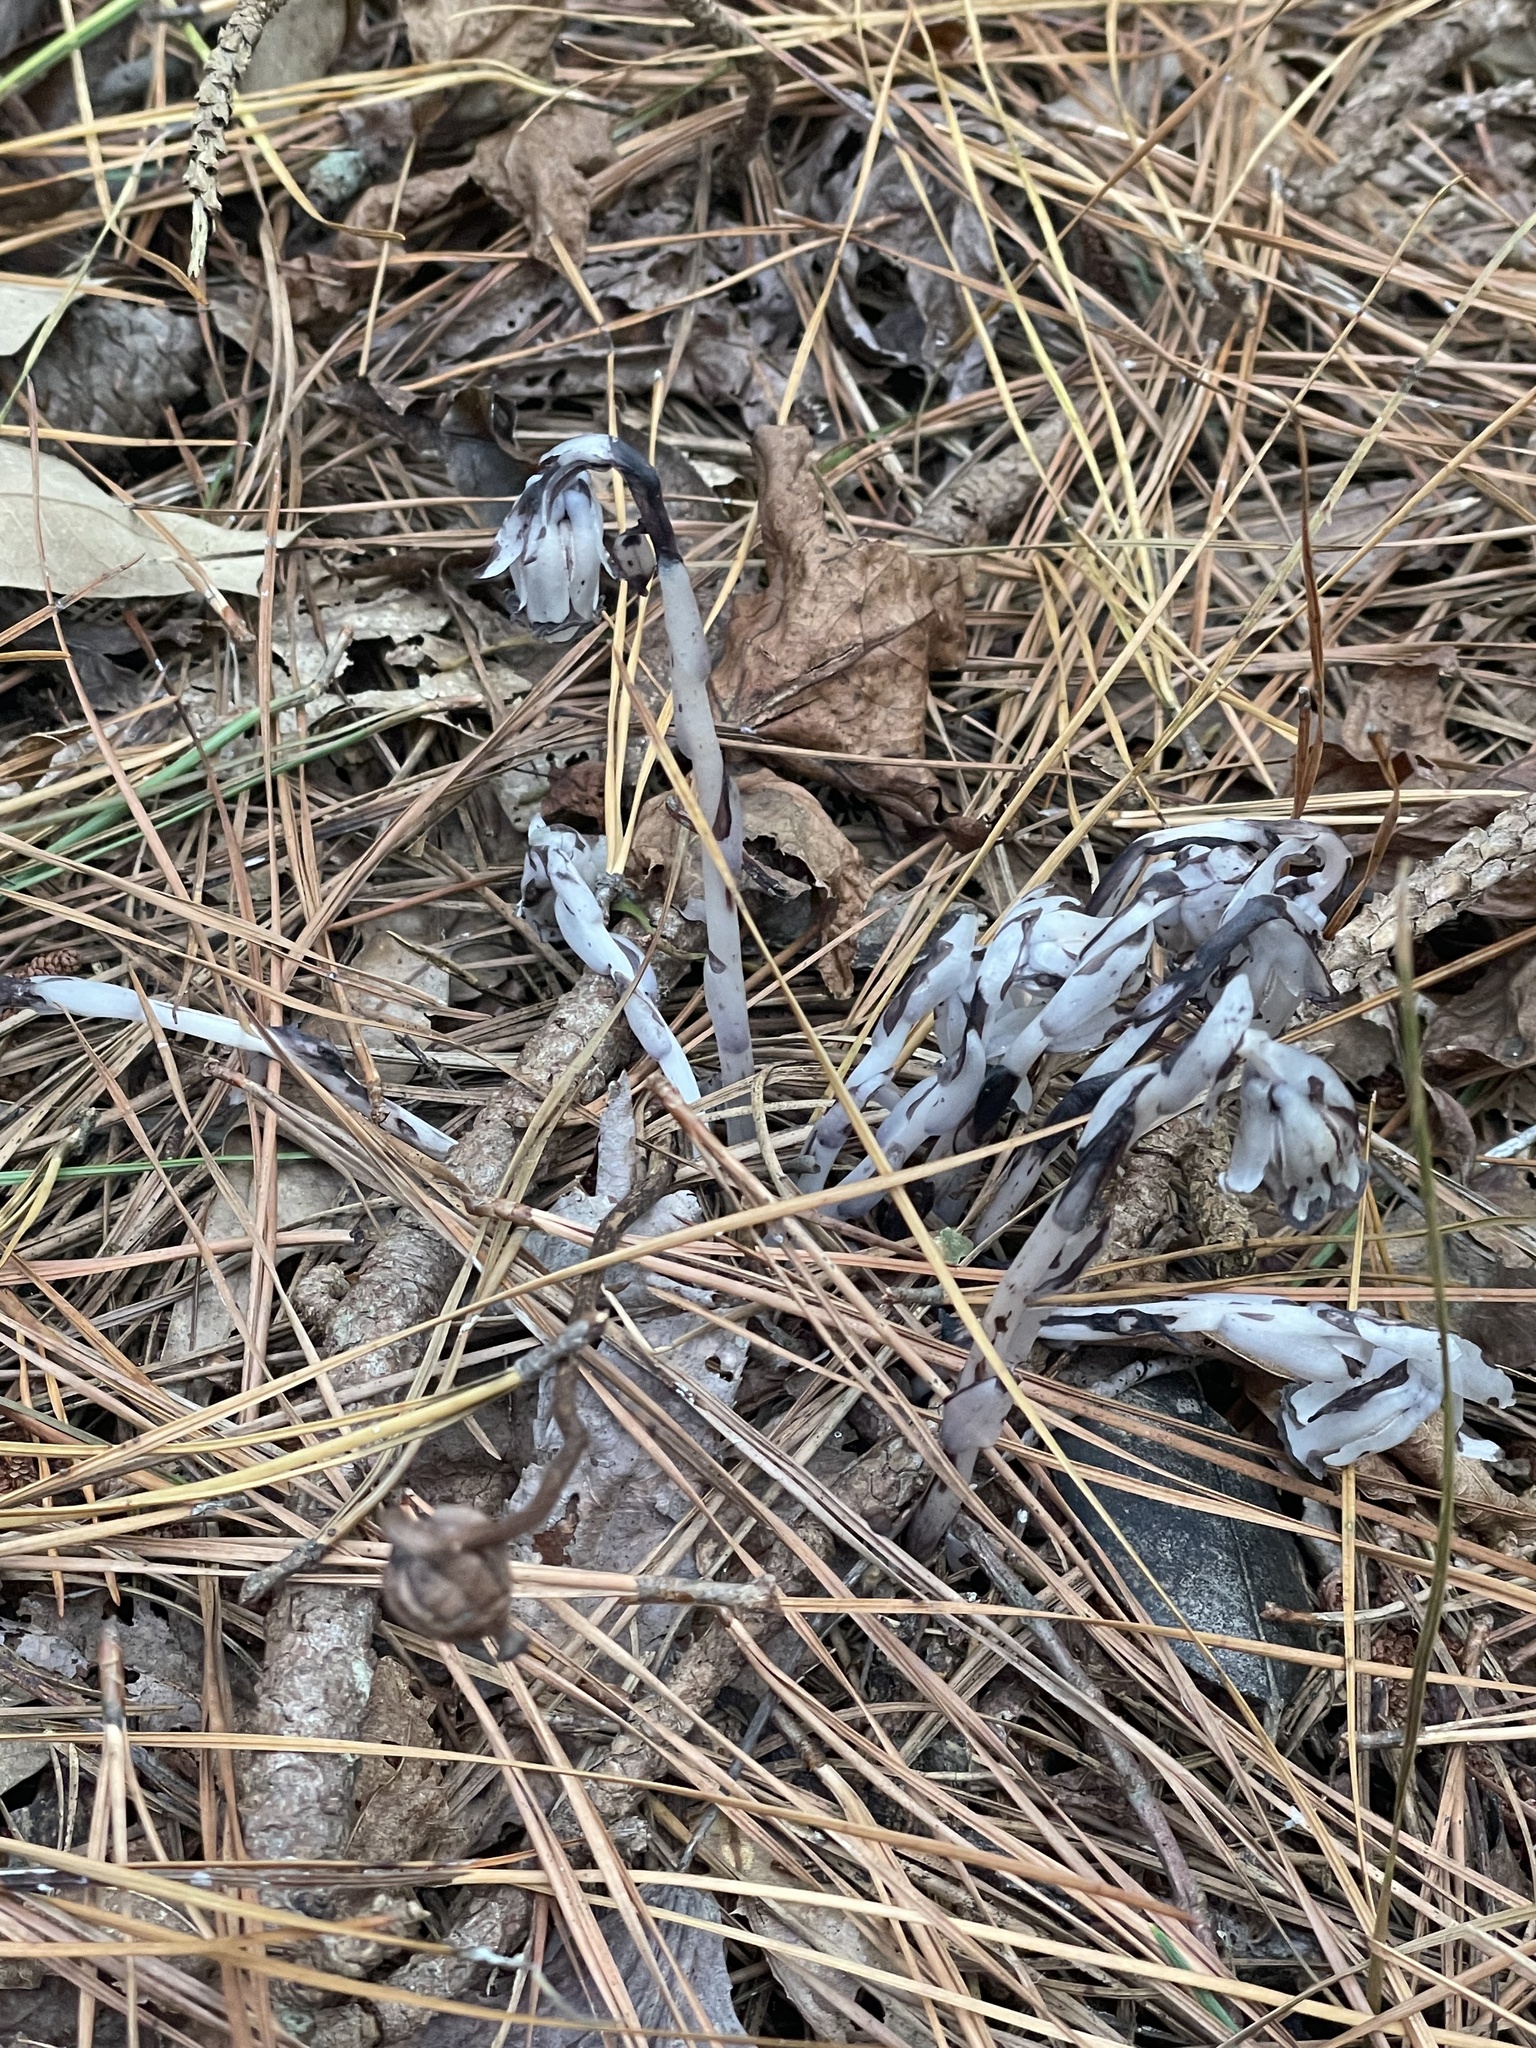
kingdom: Plantae
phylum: Tracheophyta
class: Magnoliopsida
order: Ericales
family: Ericaceae
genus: Monotropa
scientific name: Monotropa uniflora
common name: Convulsion root
